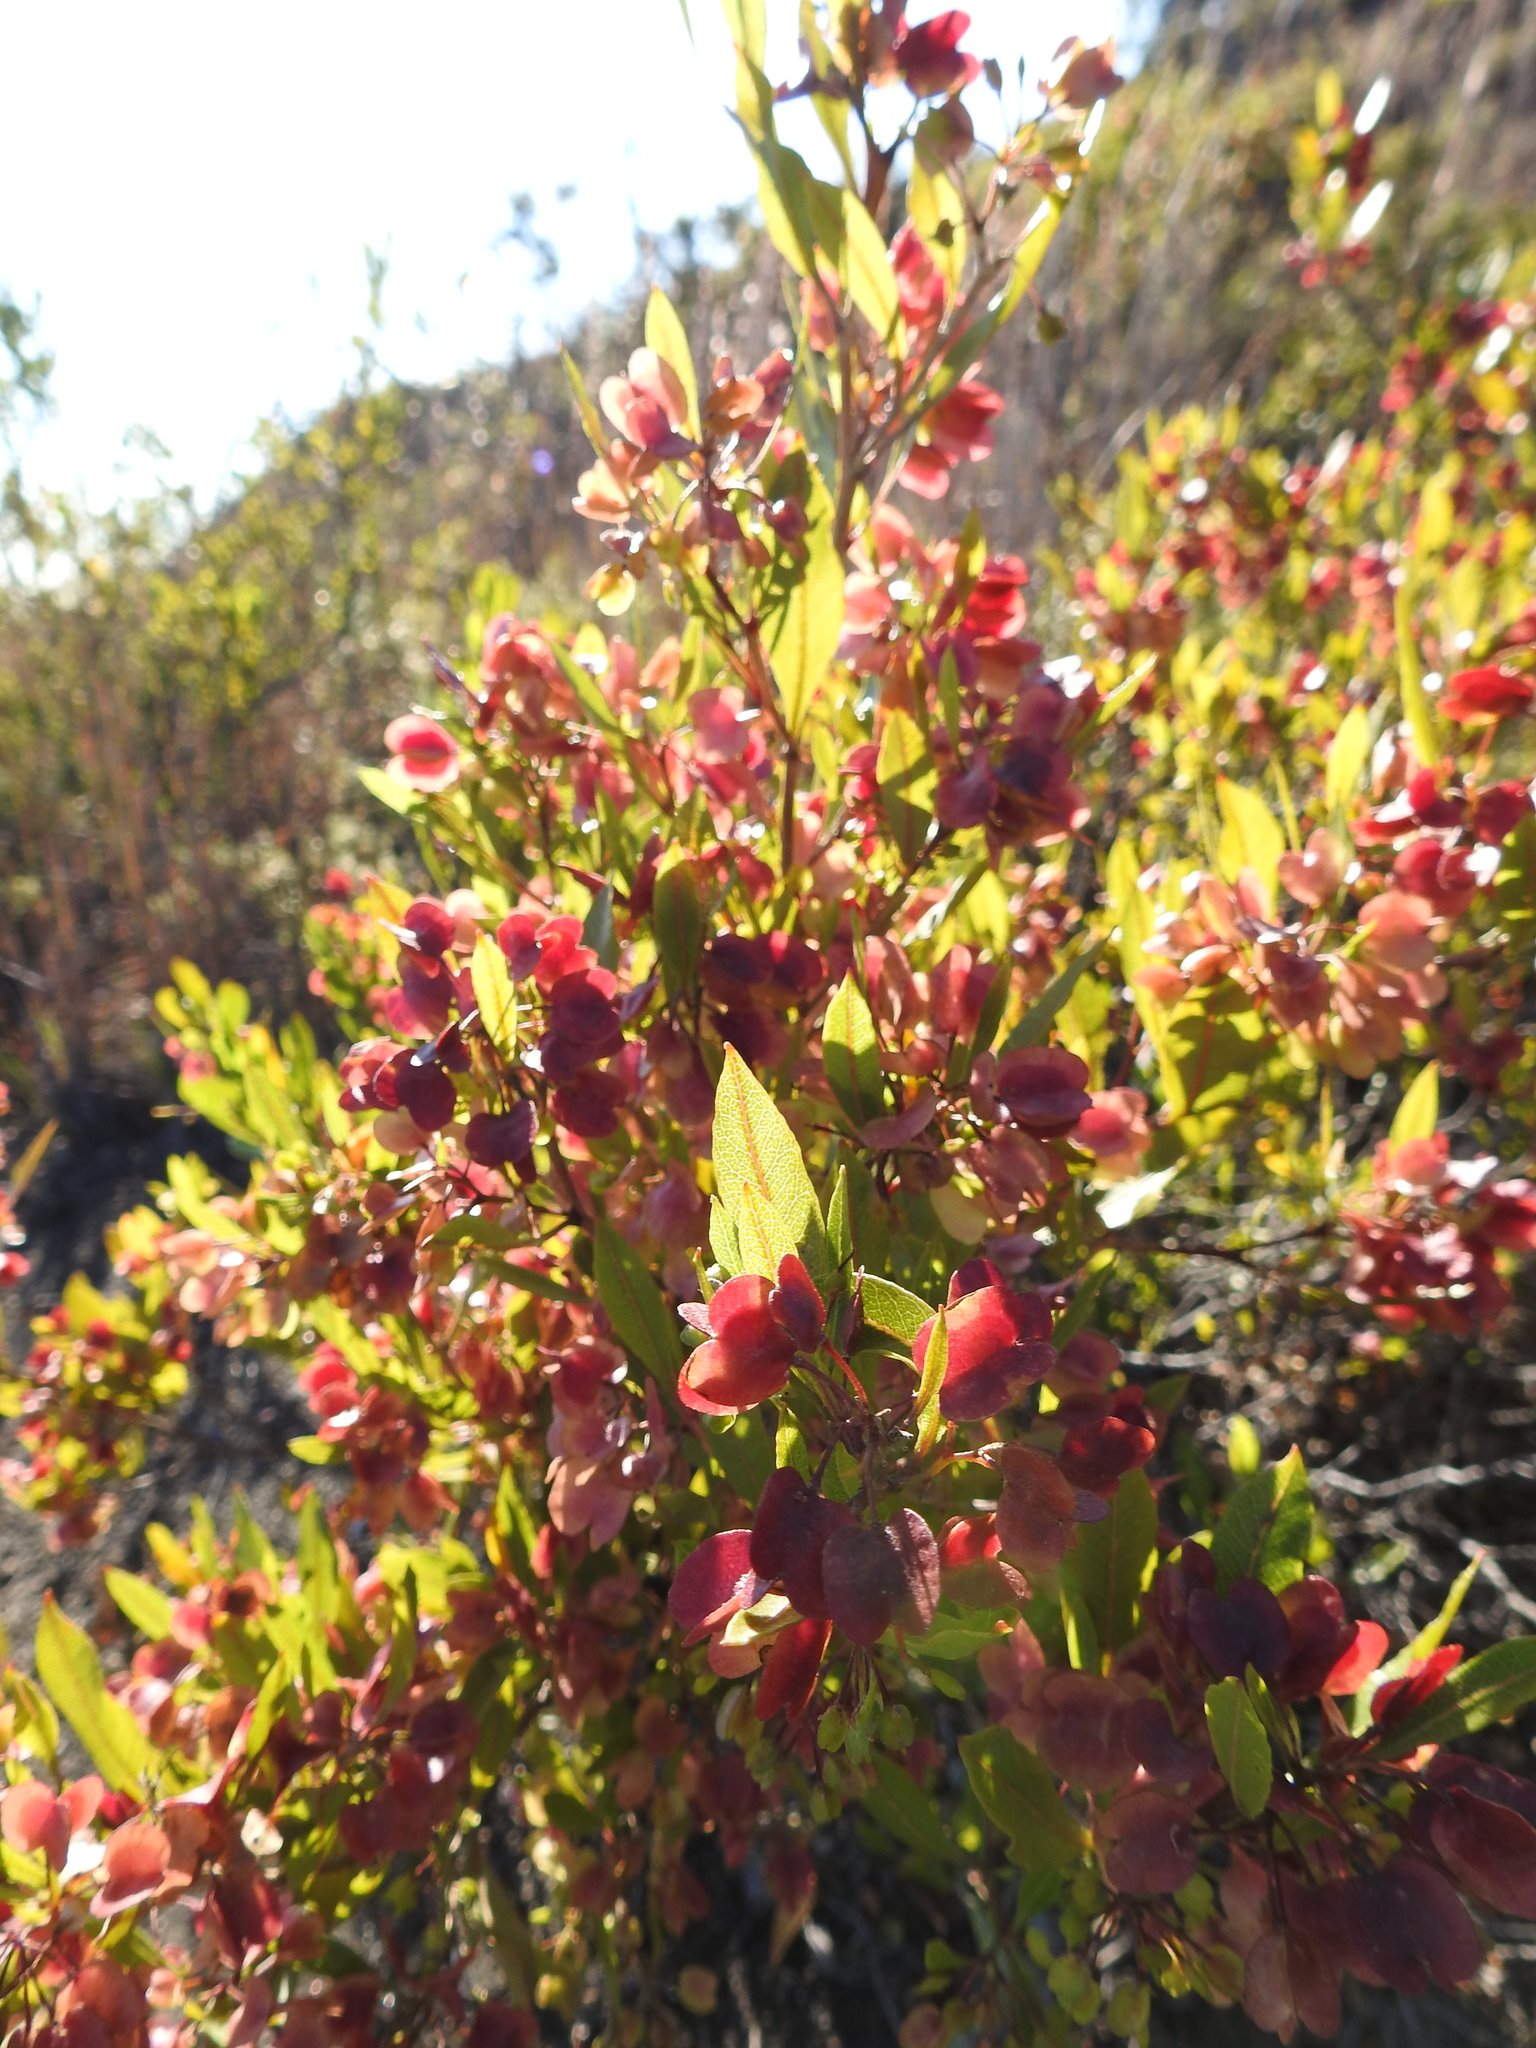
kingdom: Plantae
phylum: Tracheophyta
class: Magnoliopsida
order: Sapindales
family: Sapindaceae
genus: Dodonaea
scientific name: Dodonaea viscosa
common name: Hopbush
